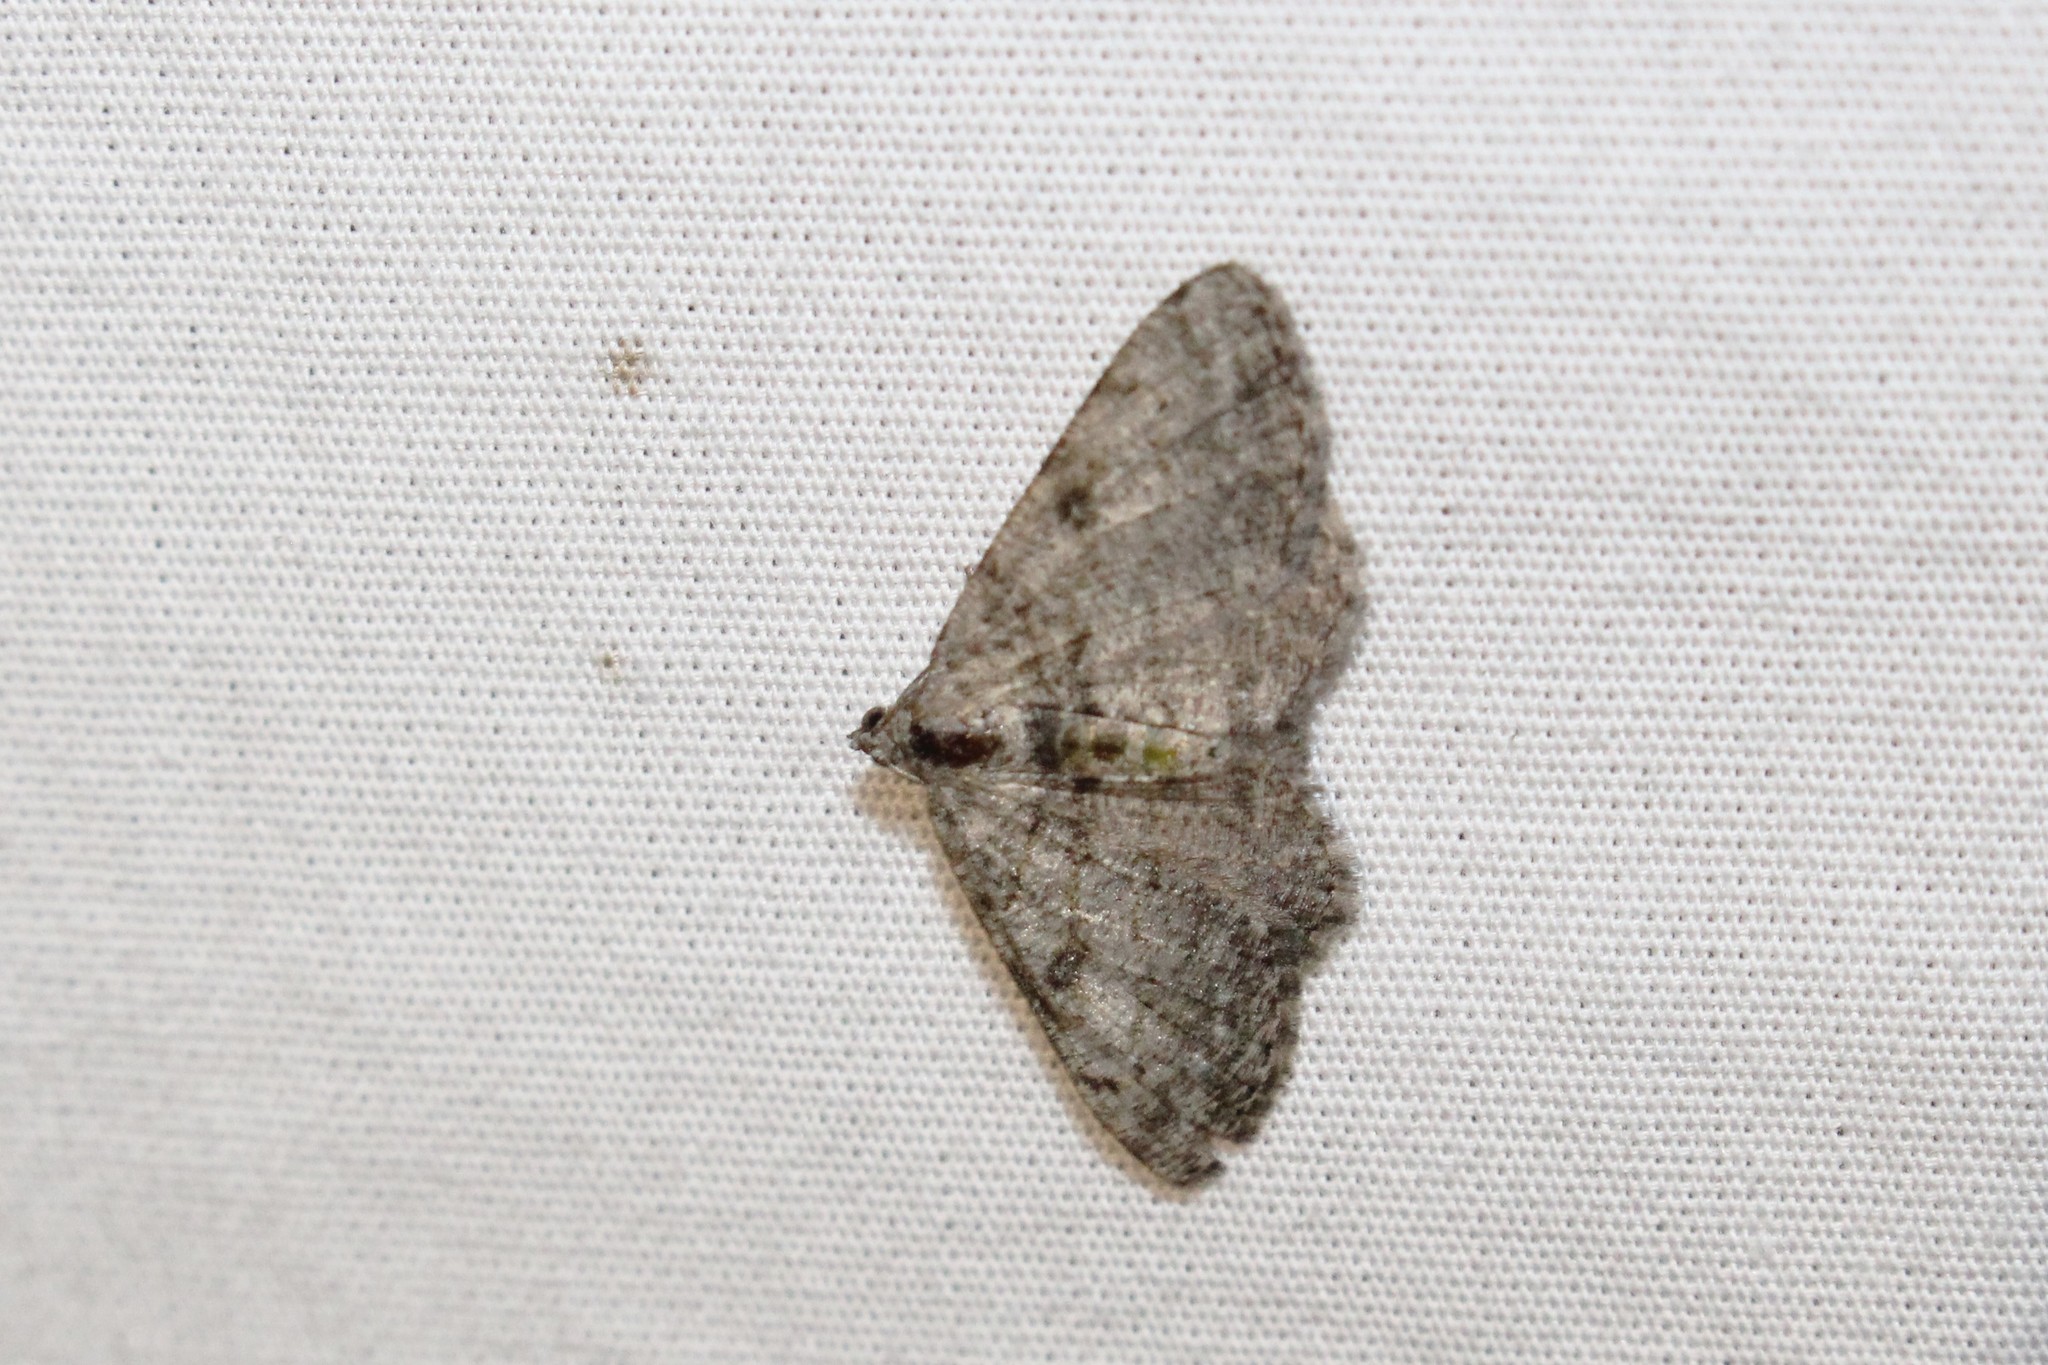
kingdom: Animalia
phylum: Arthropoda
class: Insecta
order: Lepidoptera
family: Geometridae
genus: Digrammia
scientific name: Digrammia gnophosaria
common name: Hollow-spotted angle
